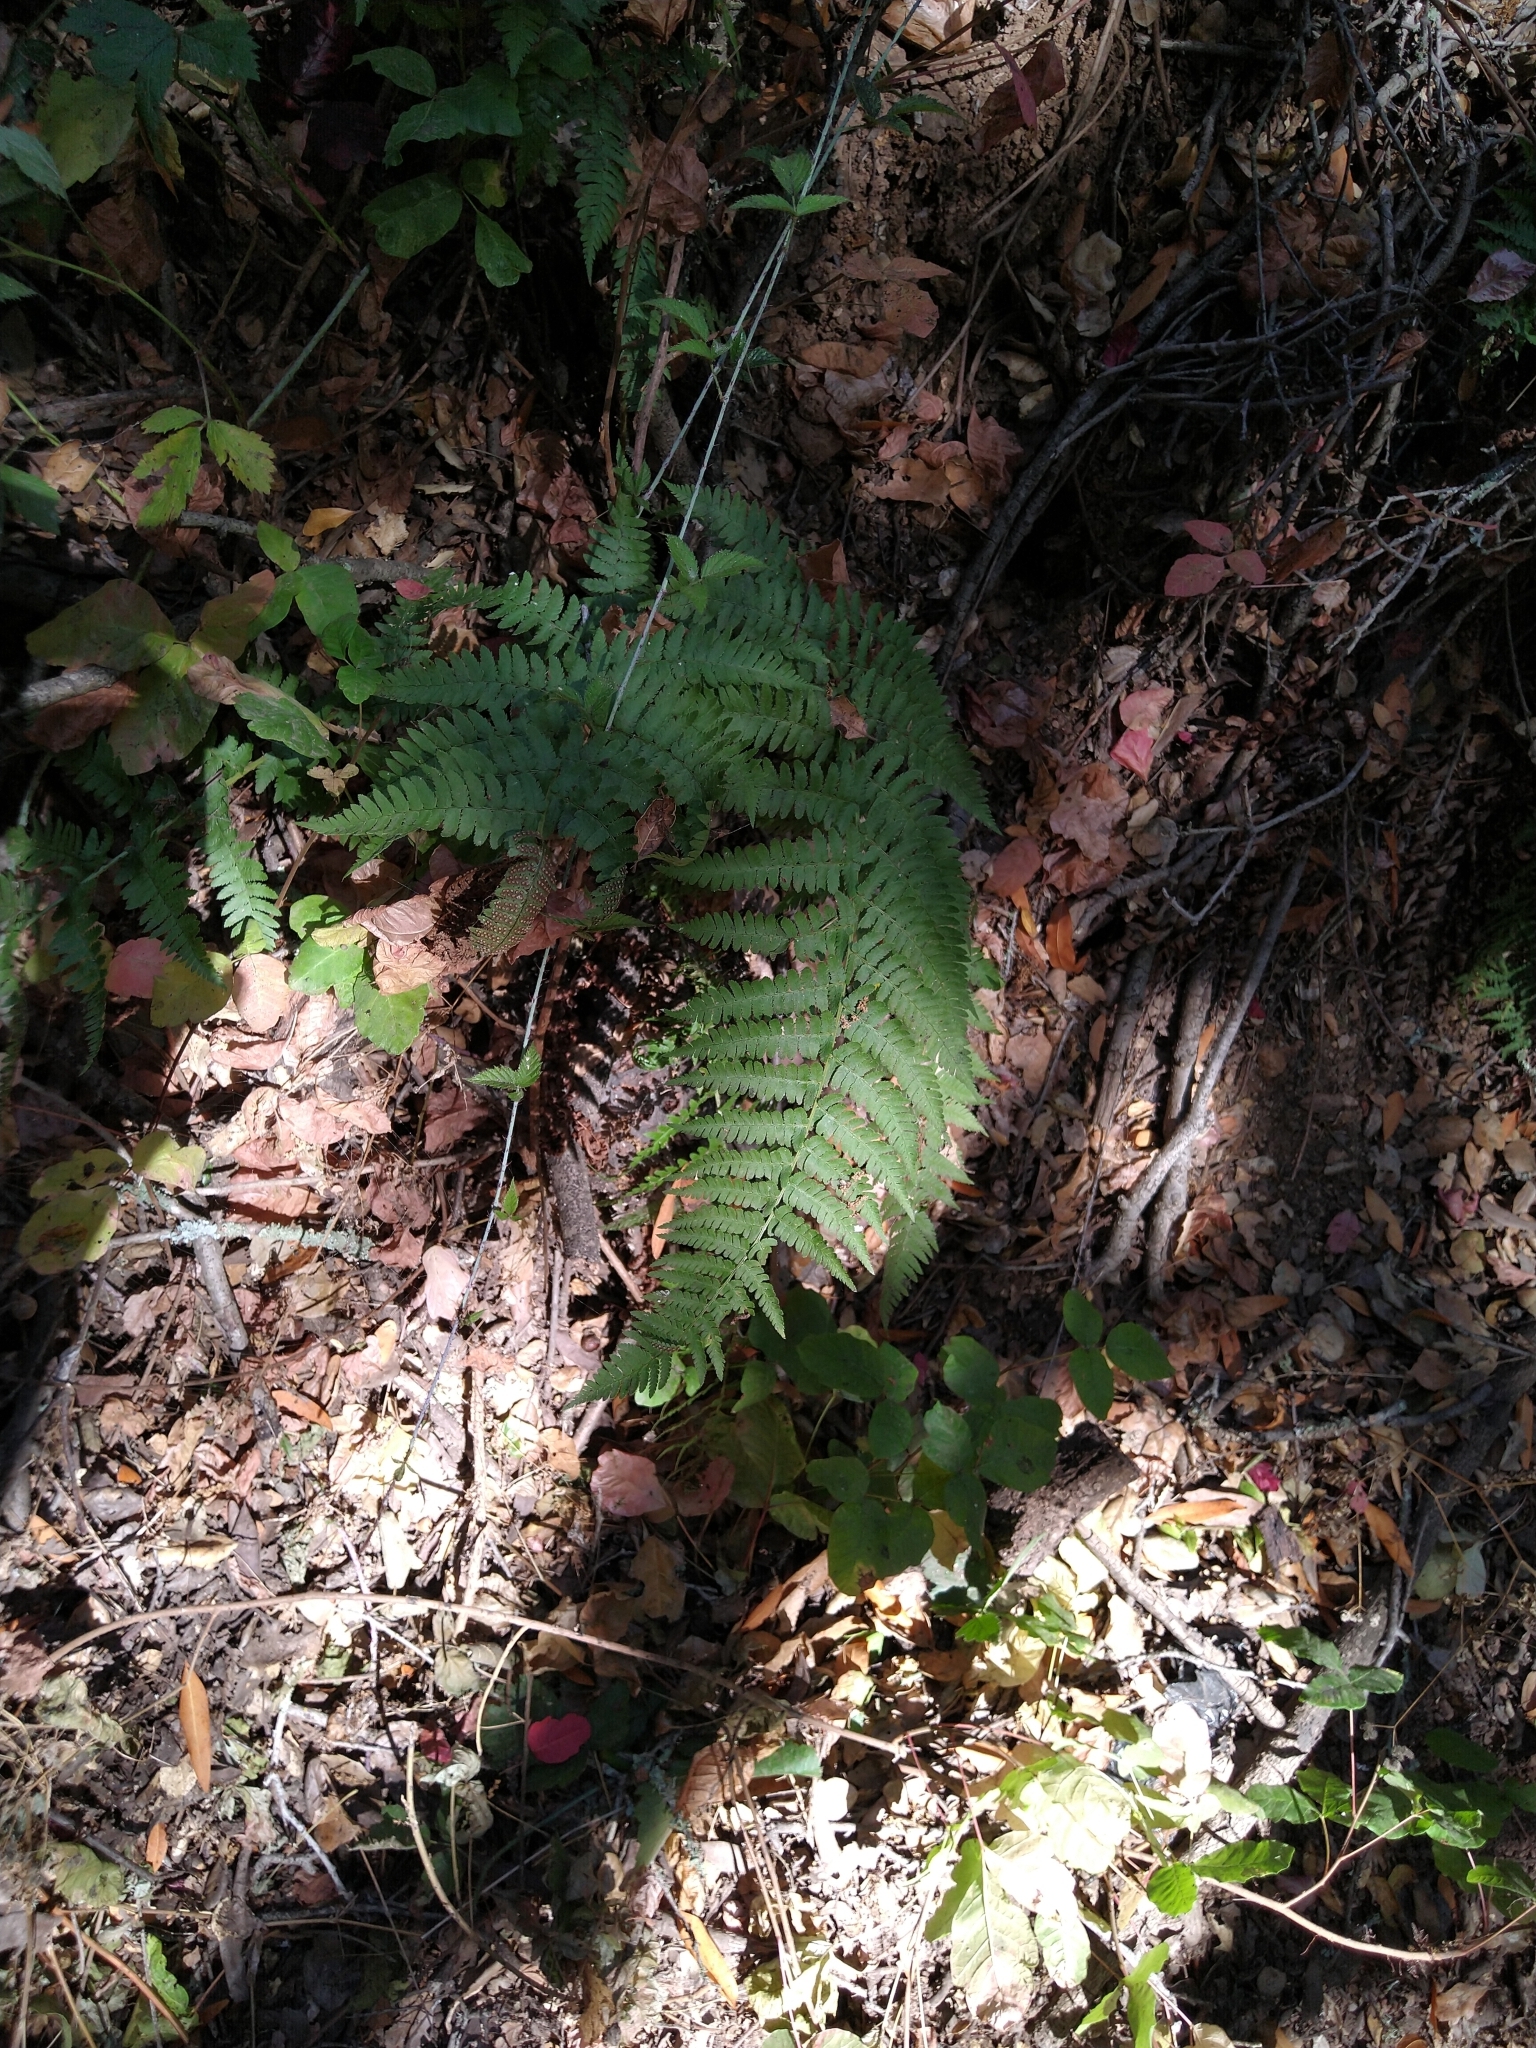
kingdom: Plantae
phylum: Tracheophyta
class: Polypodiopsida
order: Polypodiales
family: Dryopteridaceae
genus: Polystichum
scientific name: Polystichum munitum
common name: Western sword-fern
